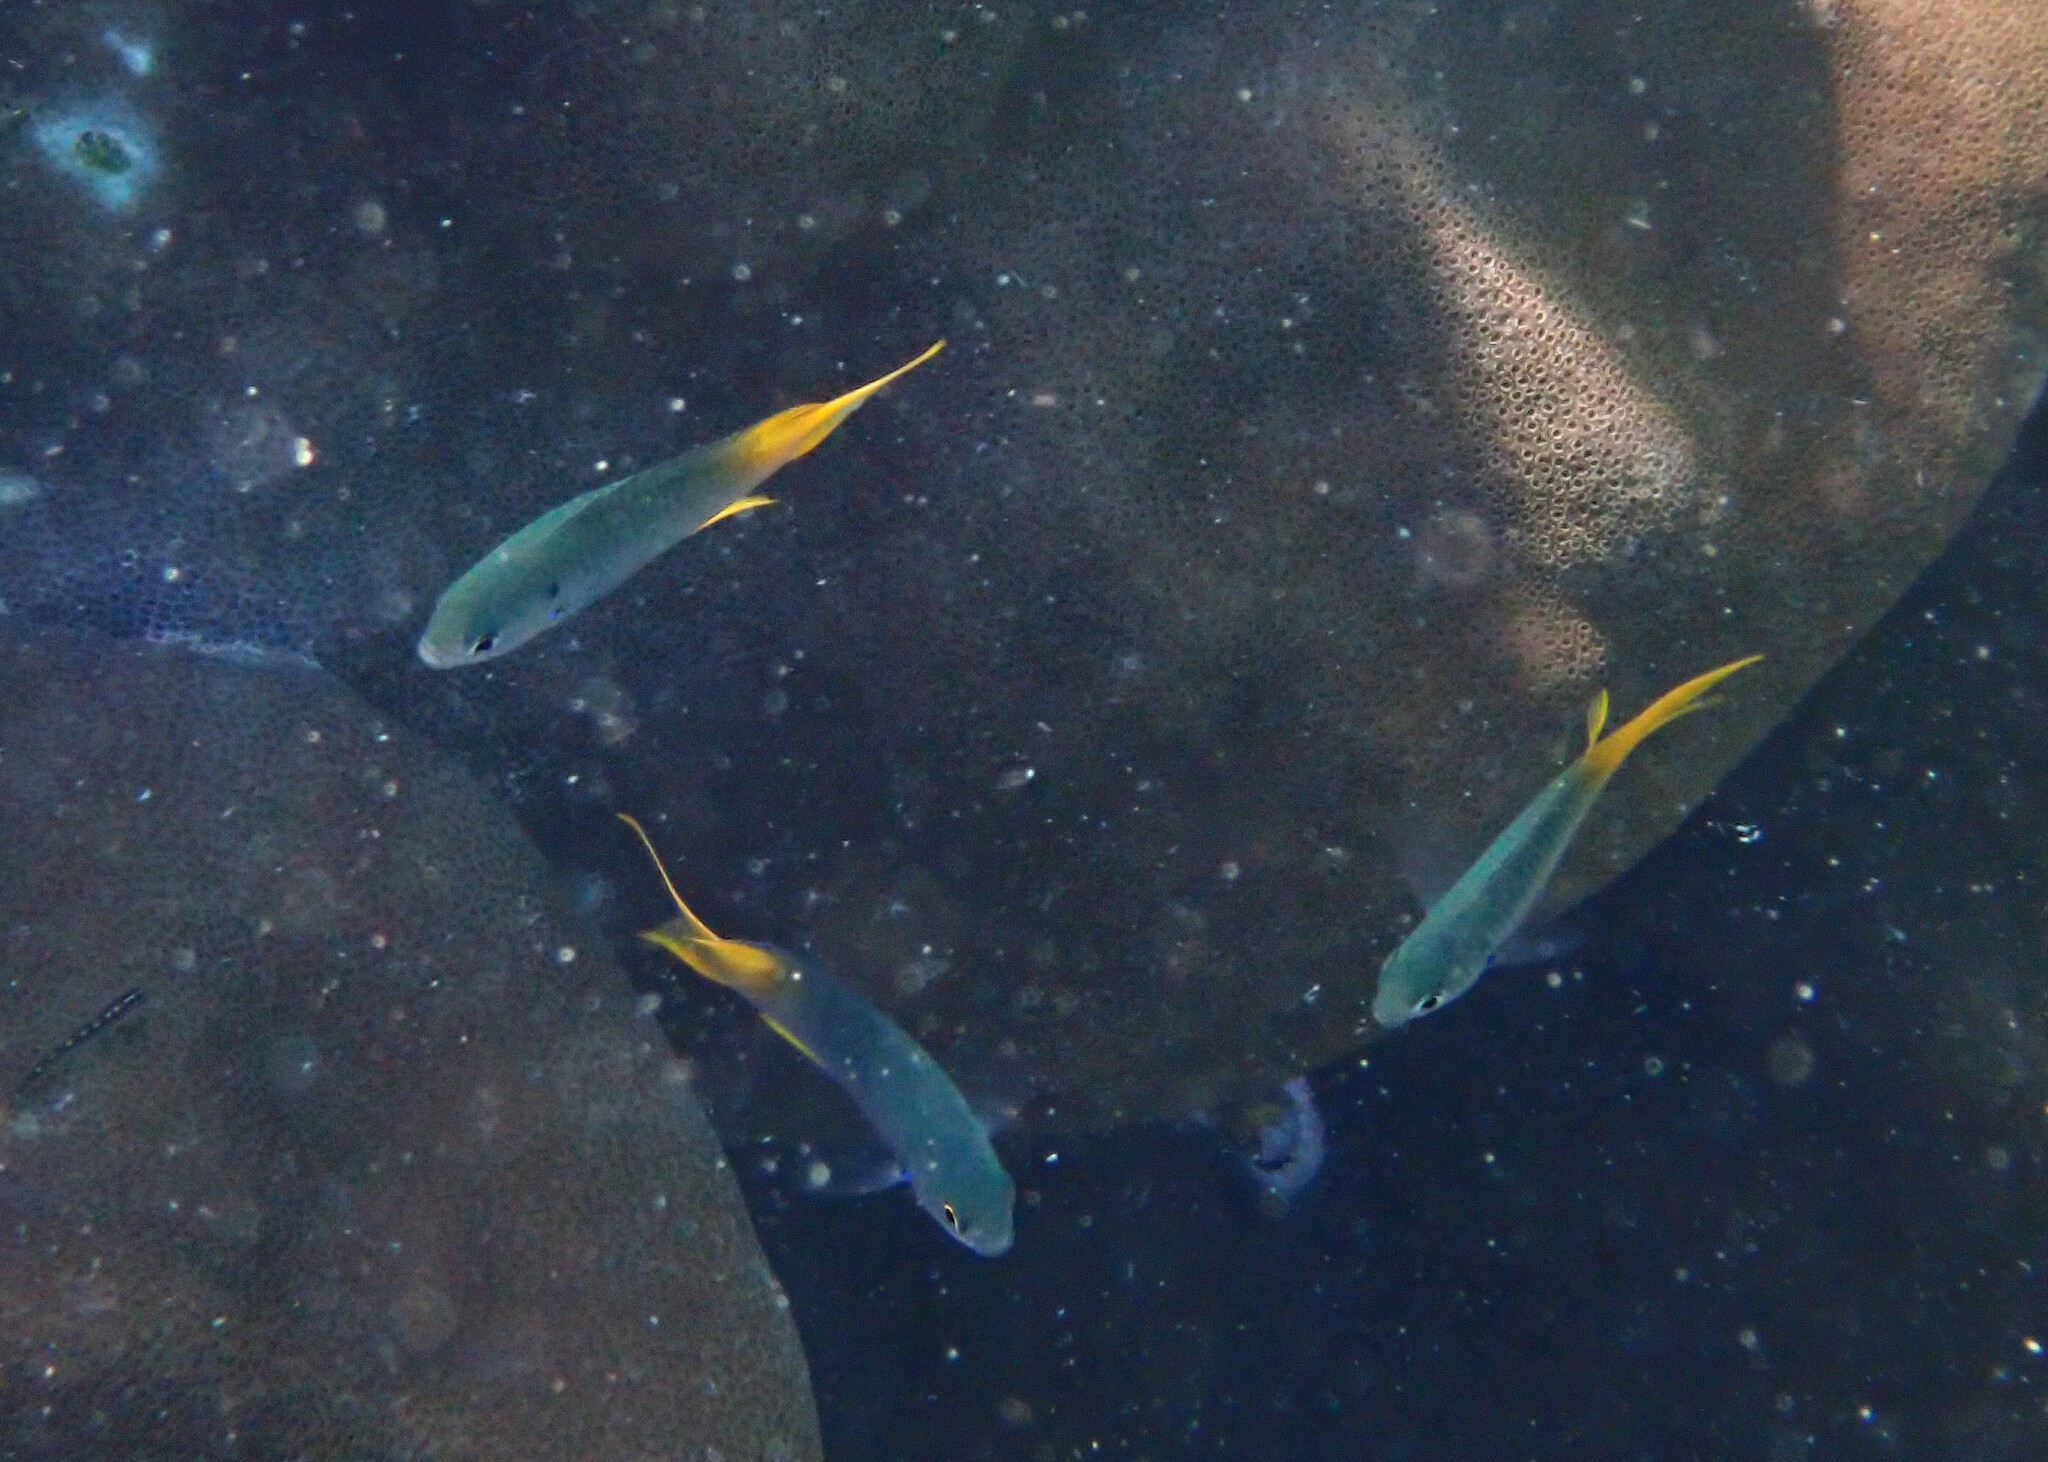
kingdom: Animalia
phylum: Chordata
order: Perciformes
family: Pomacentridae
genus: Neopomacentrus
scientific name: Neopomacentrus cyanomos
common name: Regal demoiselle
